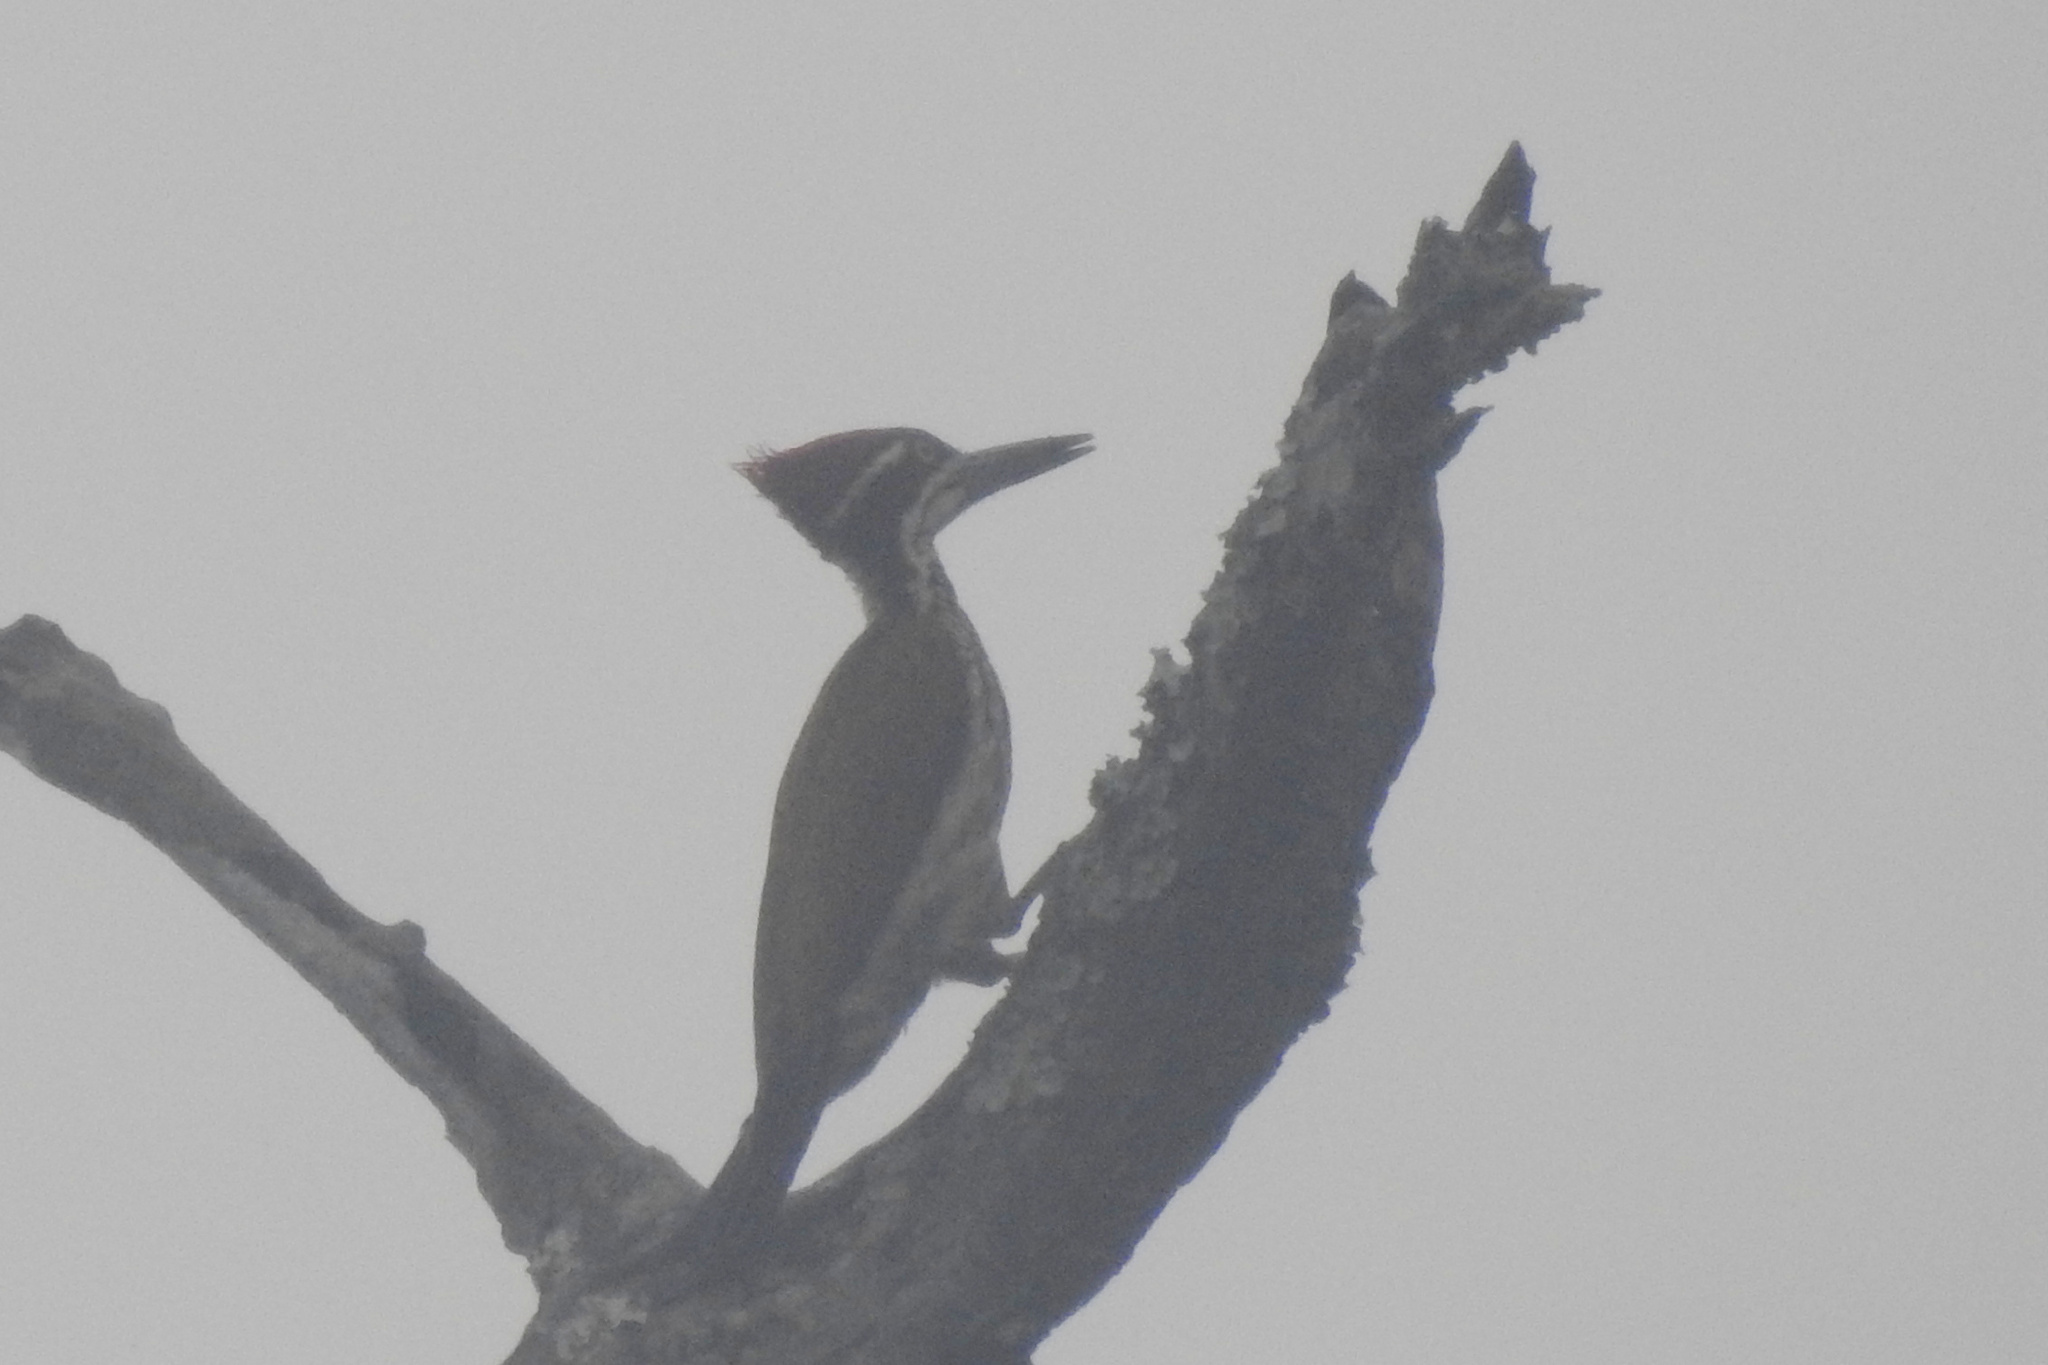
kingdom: Animalia
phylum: Chordata
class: Aves
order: Piciformes
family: Picidae
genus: Chrysocolaptes
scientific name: Chrysocolaptes socialis
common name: Malabar flameback
